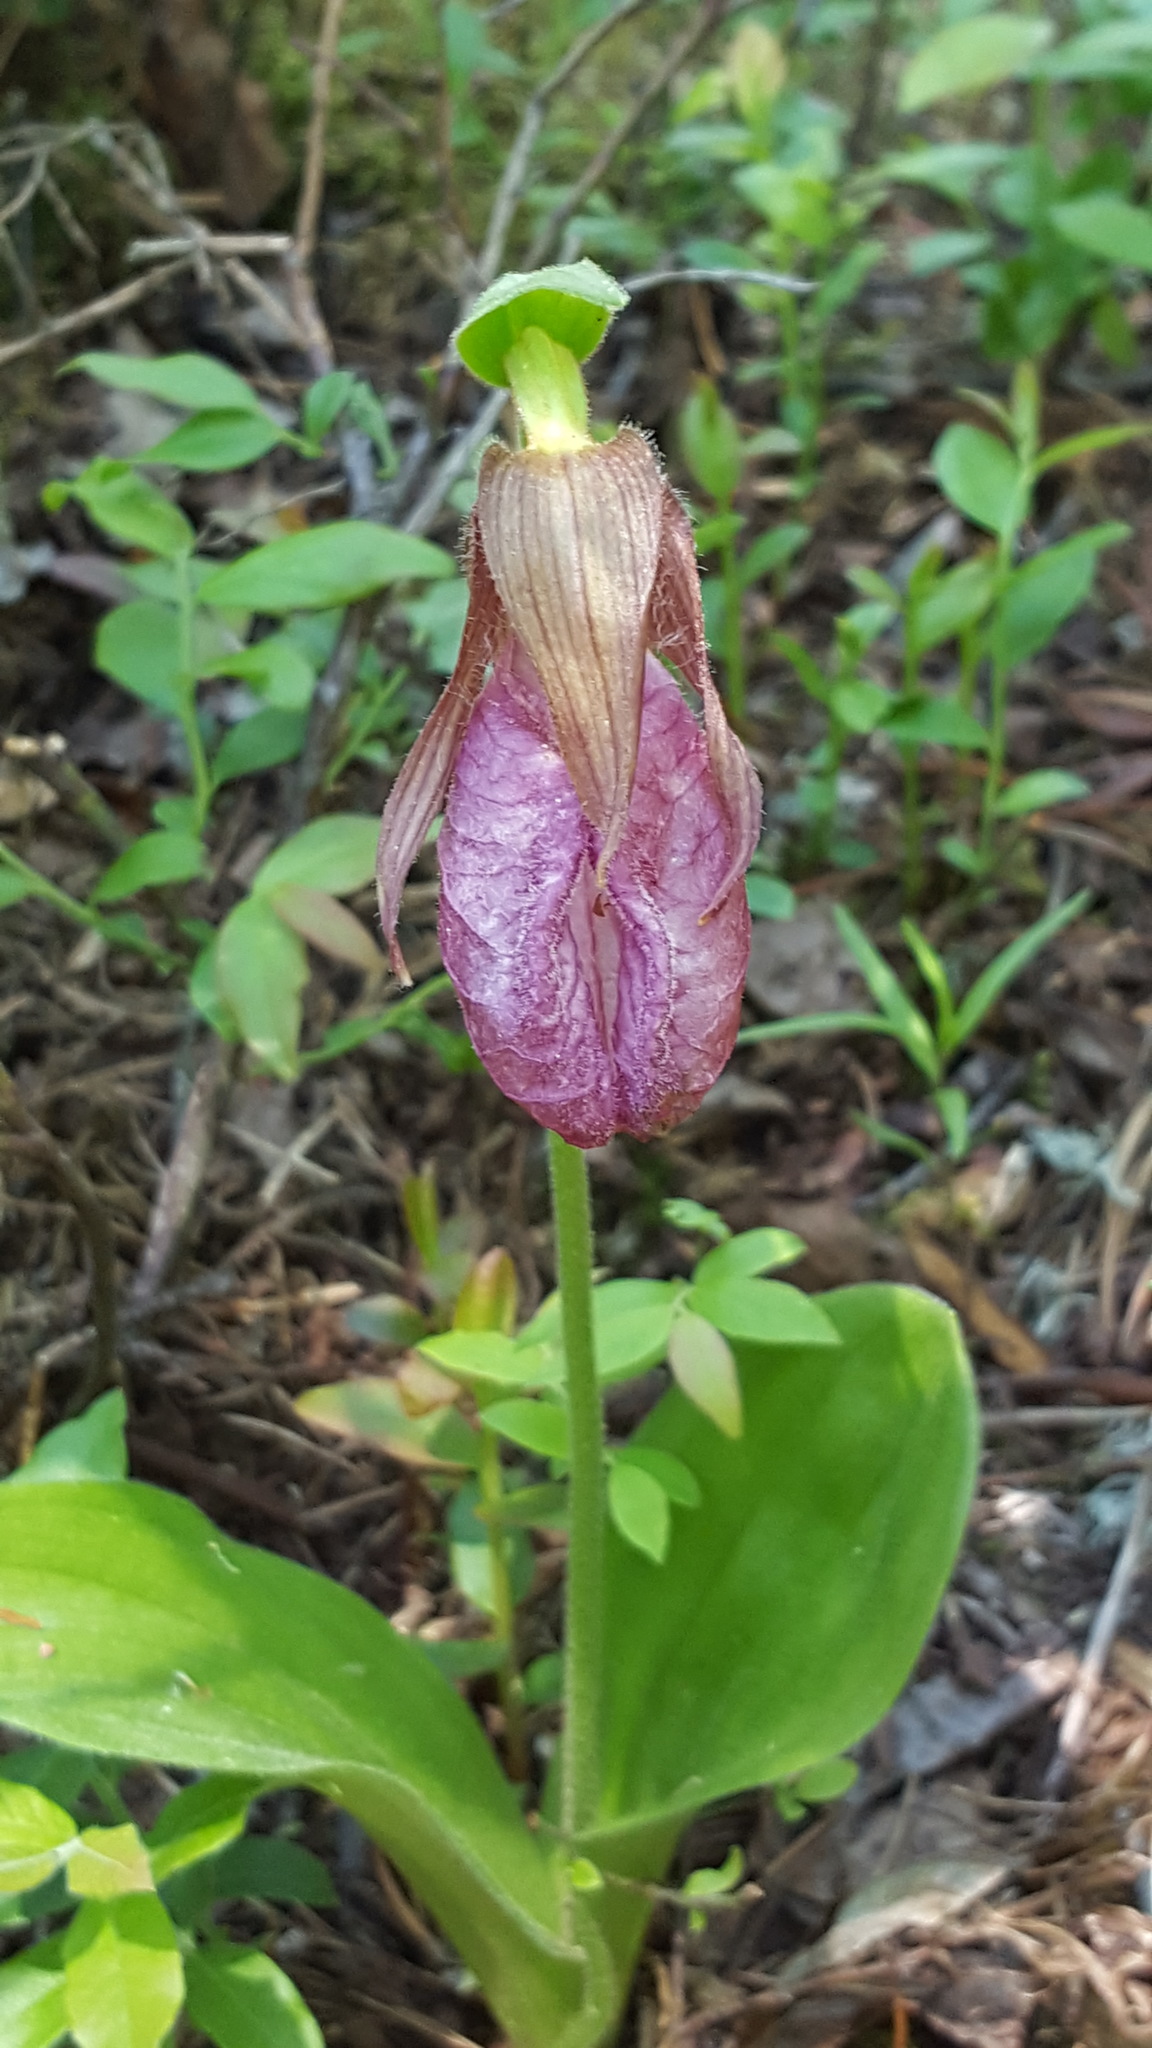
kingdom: Plantae
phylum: Tracheophyta
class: Liliopsida
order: Asparagales
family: Orchidaceae
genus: Cypripedium
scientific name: Cypripedium acaule
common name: Pink lady's-slipper
